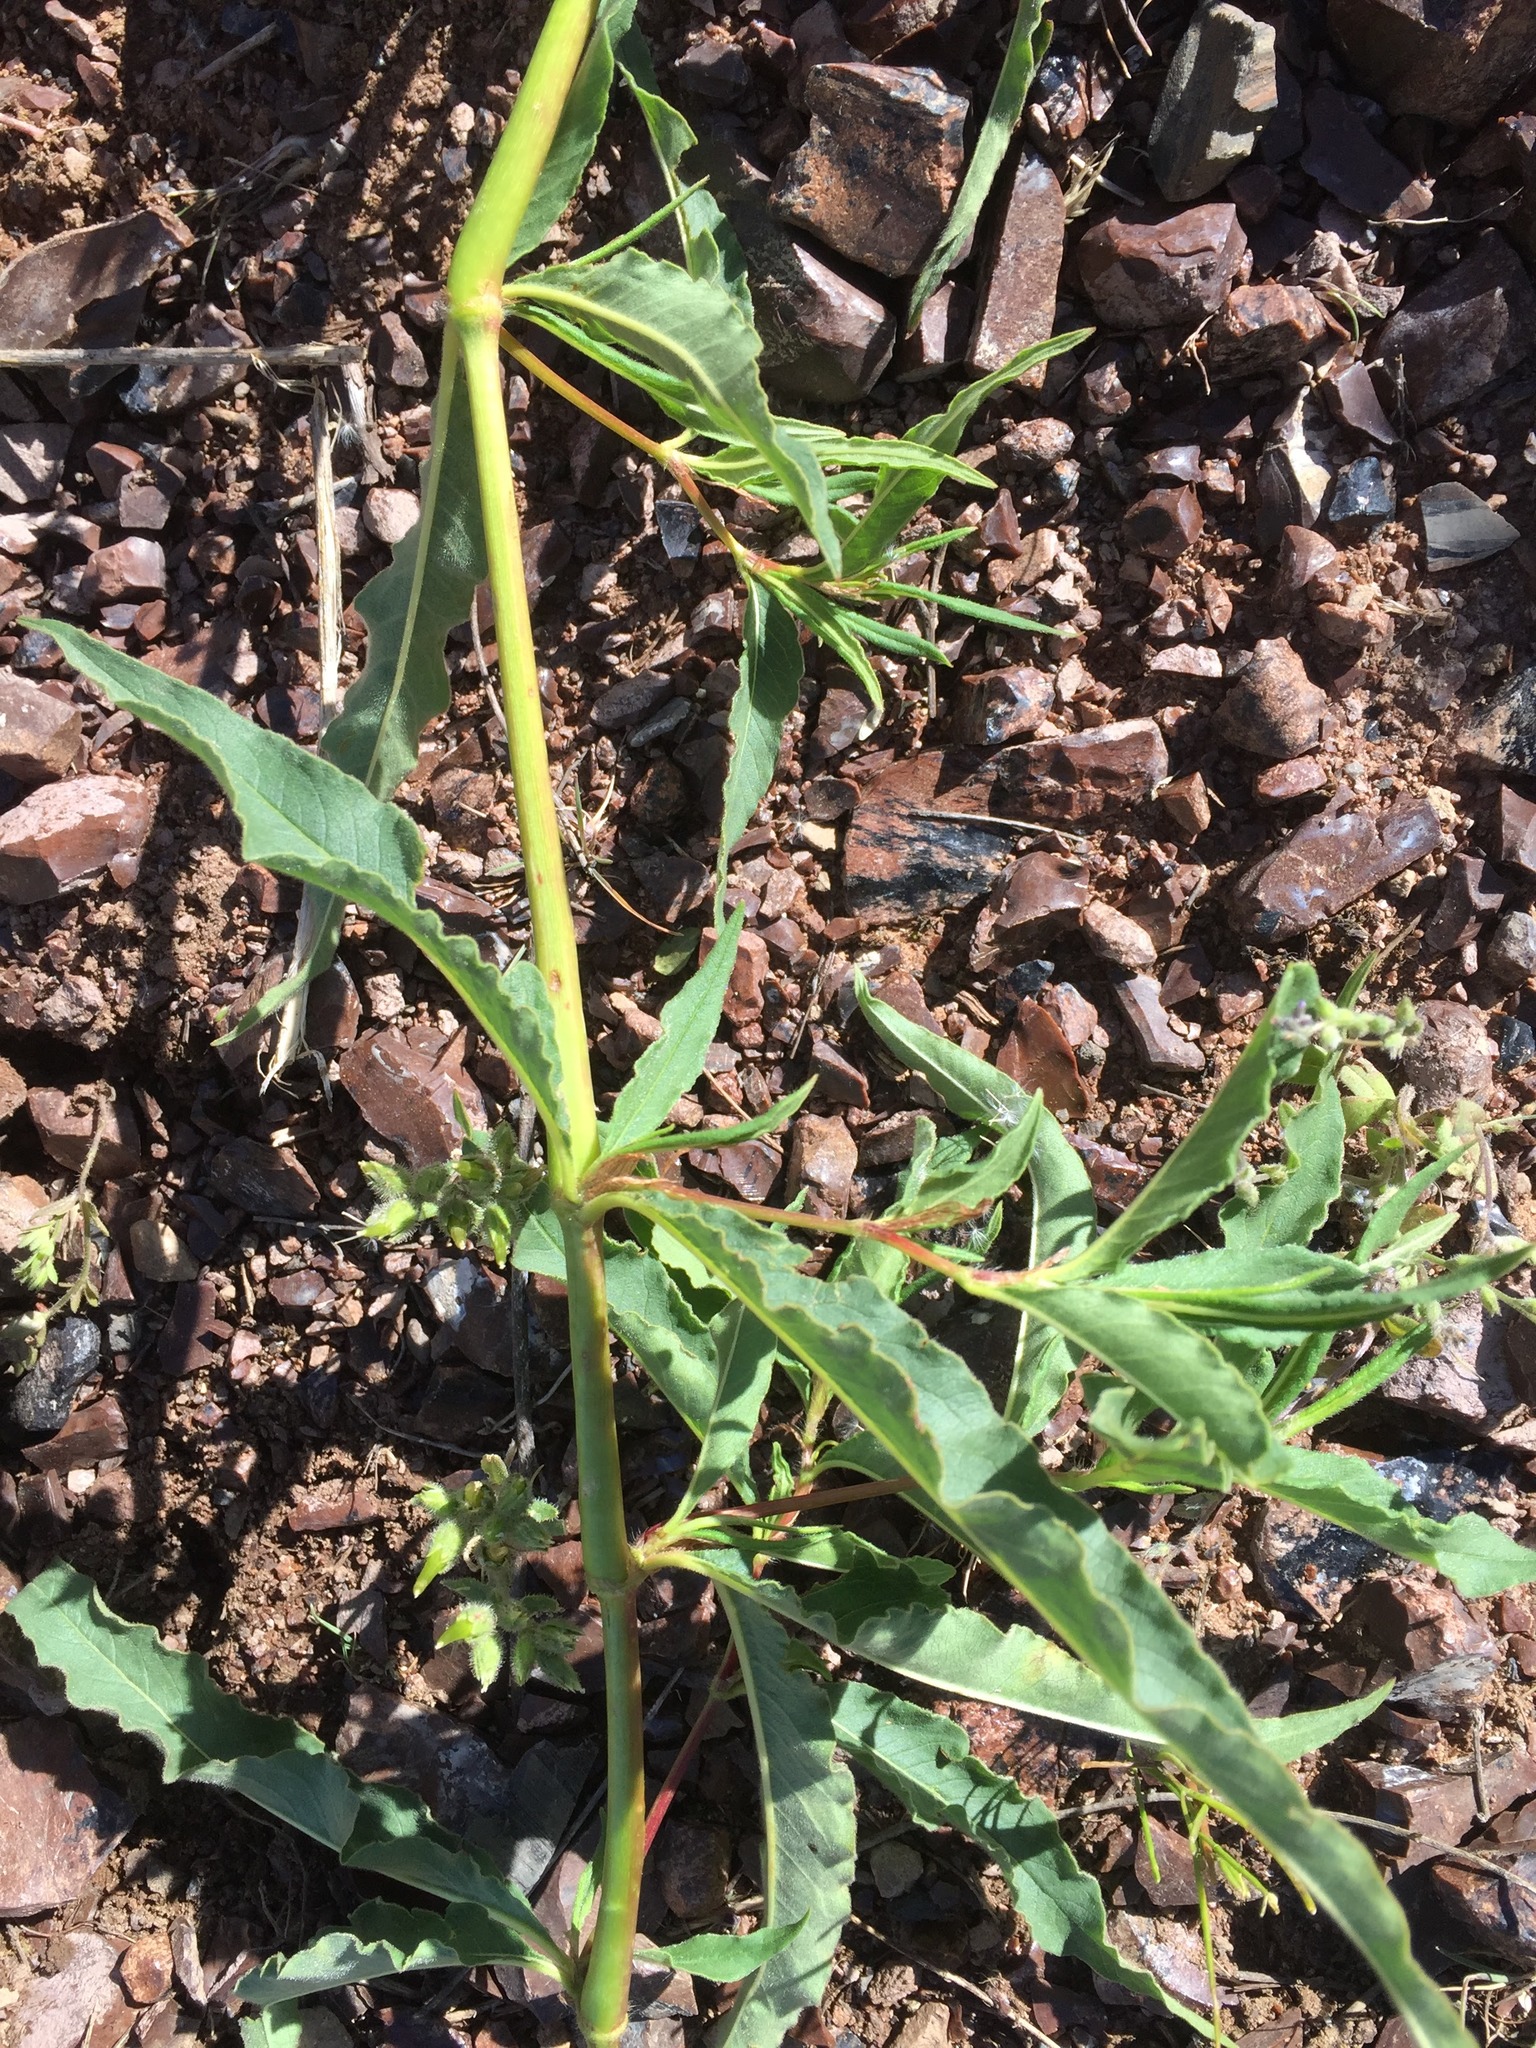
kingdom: Plantae
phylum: Tracheophyta
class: Magnoliopsida
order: Caryophyllales
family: Polygonaceae
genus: Koenigia
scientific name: Koenigia alpina
